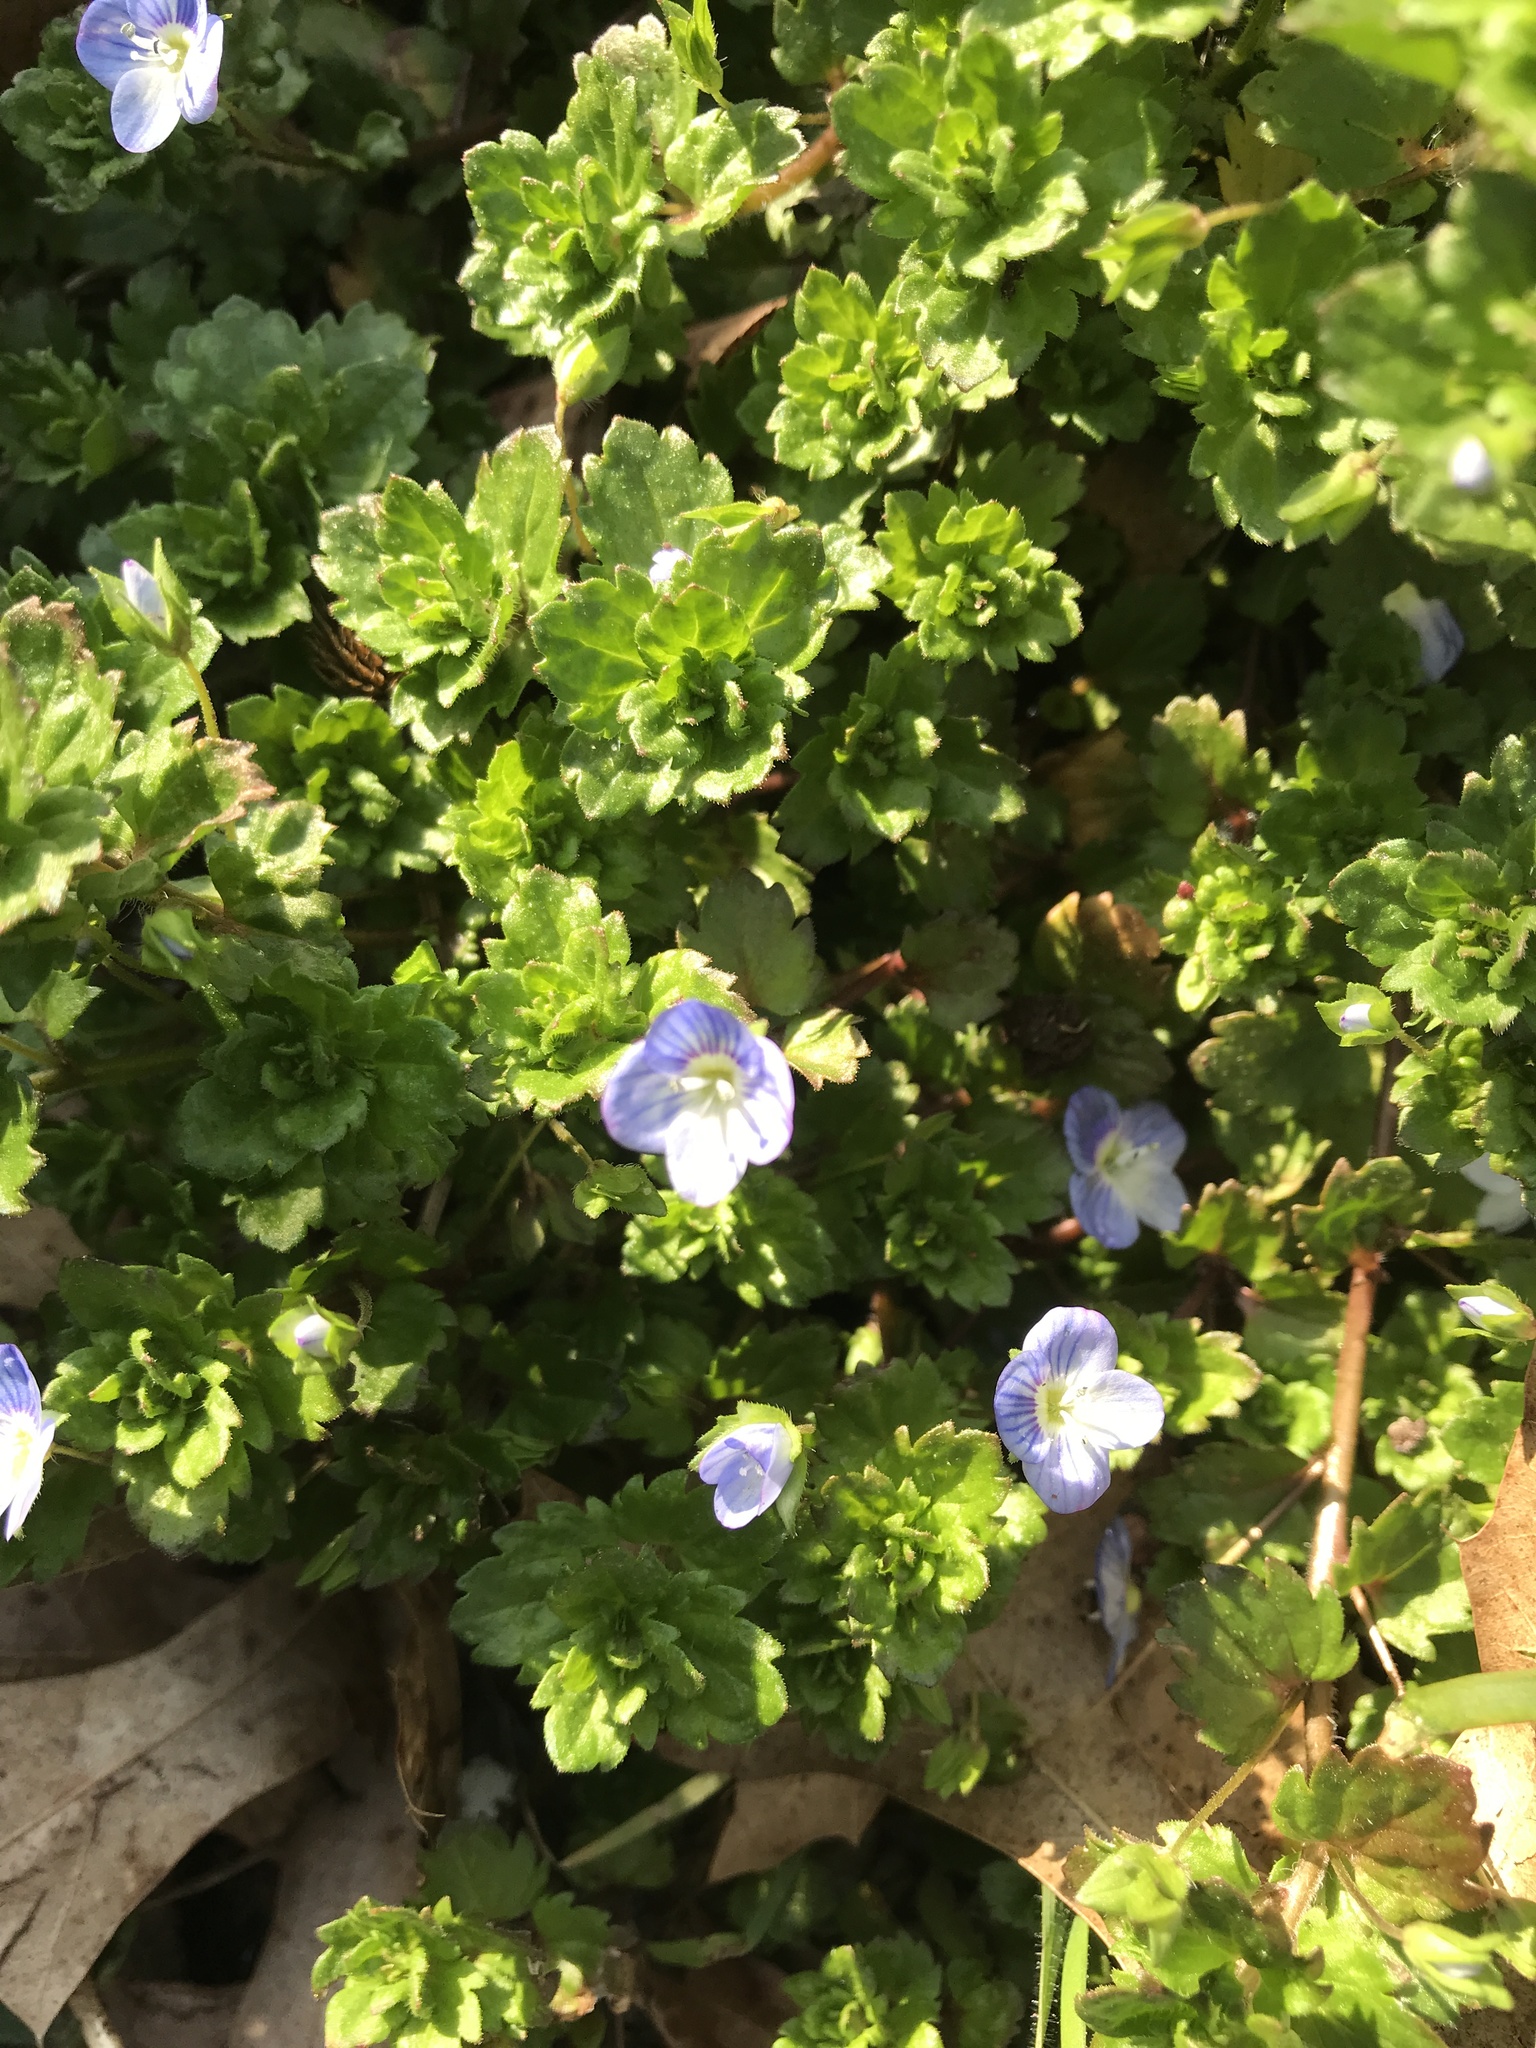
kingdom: Plantae
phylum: Tracheophyta
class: Magnoliopsida
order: Lamiales
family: Plantaginaceae
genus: Veronica
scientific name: Veronica persica
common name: Common field-speedwell
